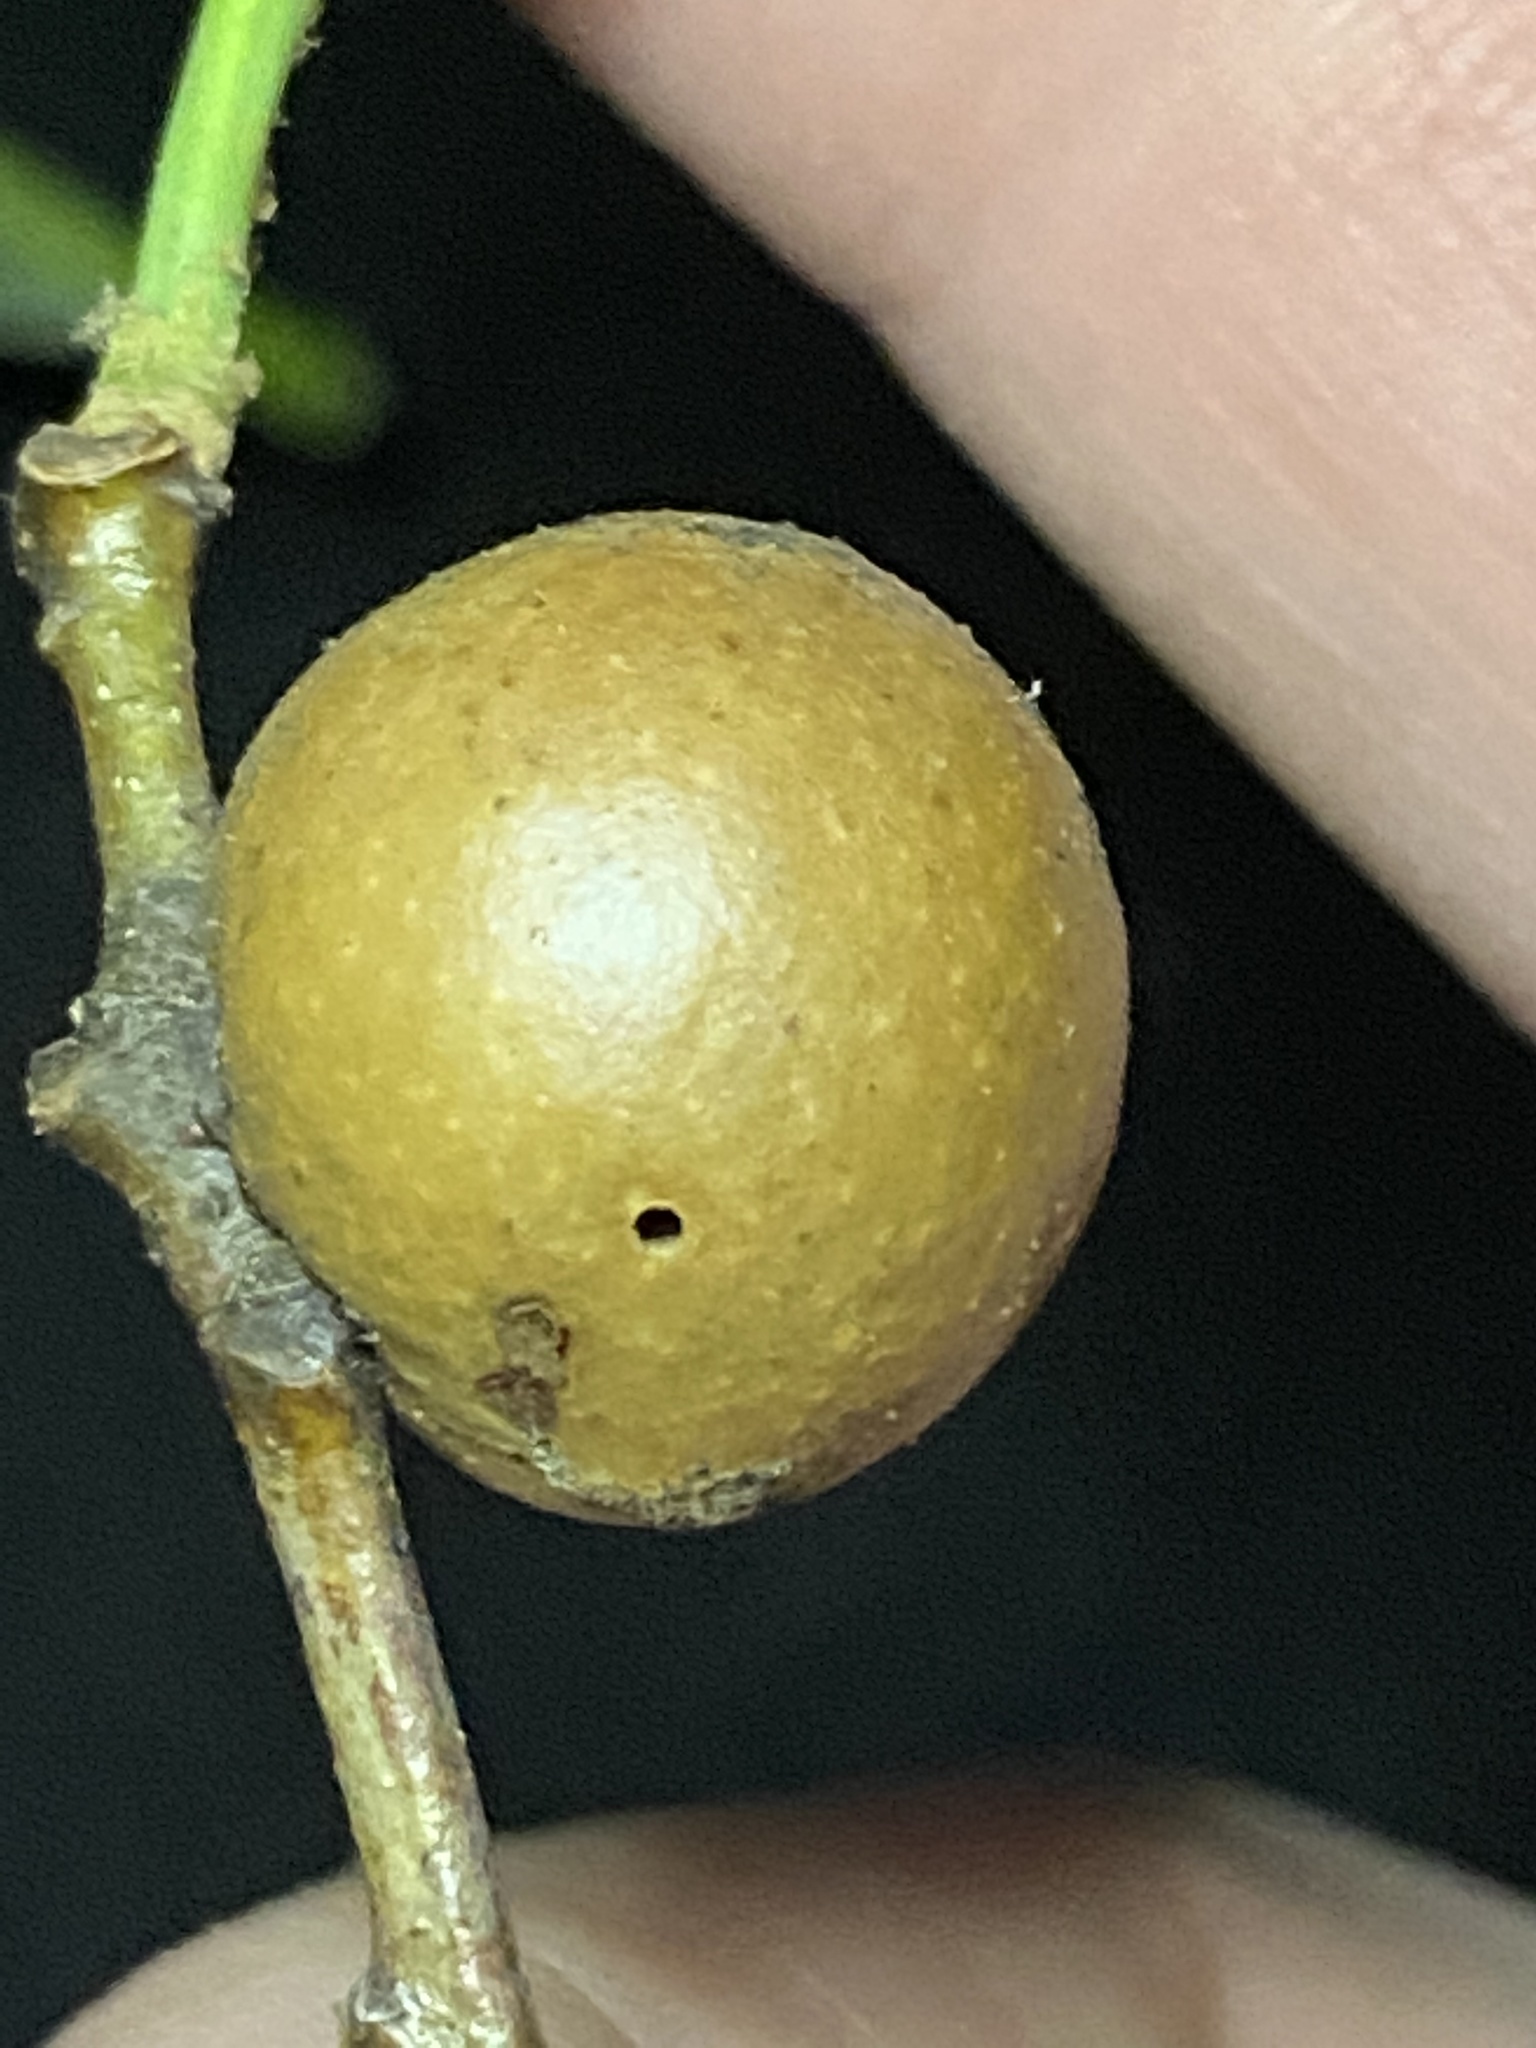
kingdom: Animalia
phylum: Arthropoda
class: Insecta
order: Hymenoptera
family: Cynipidae
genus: Disholcaspis
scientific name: Disholcaspis quercusglobulus
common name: Round bullet gall wasp
